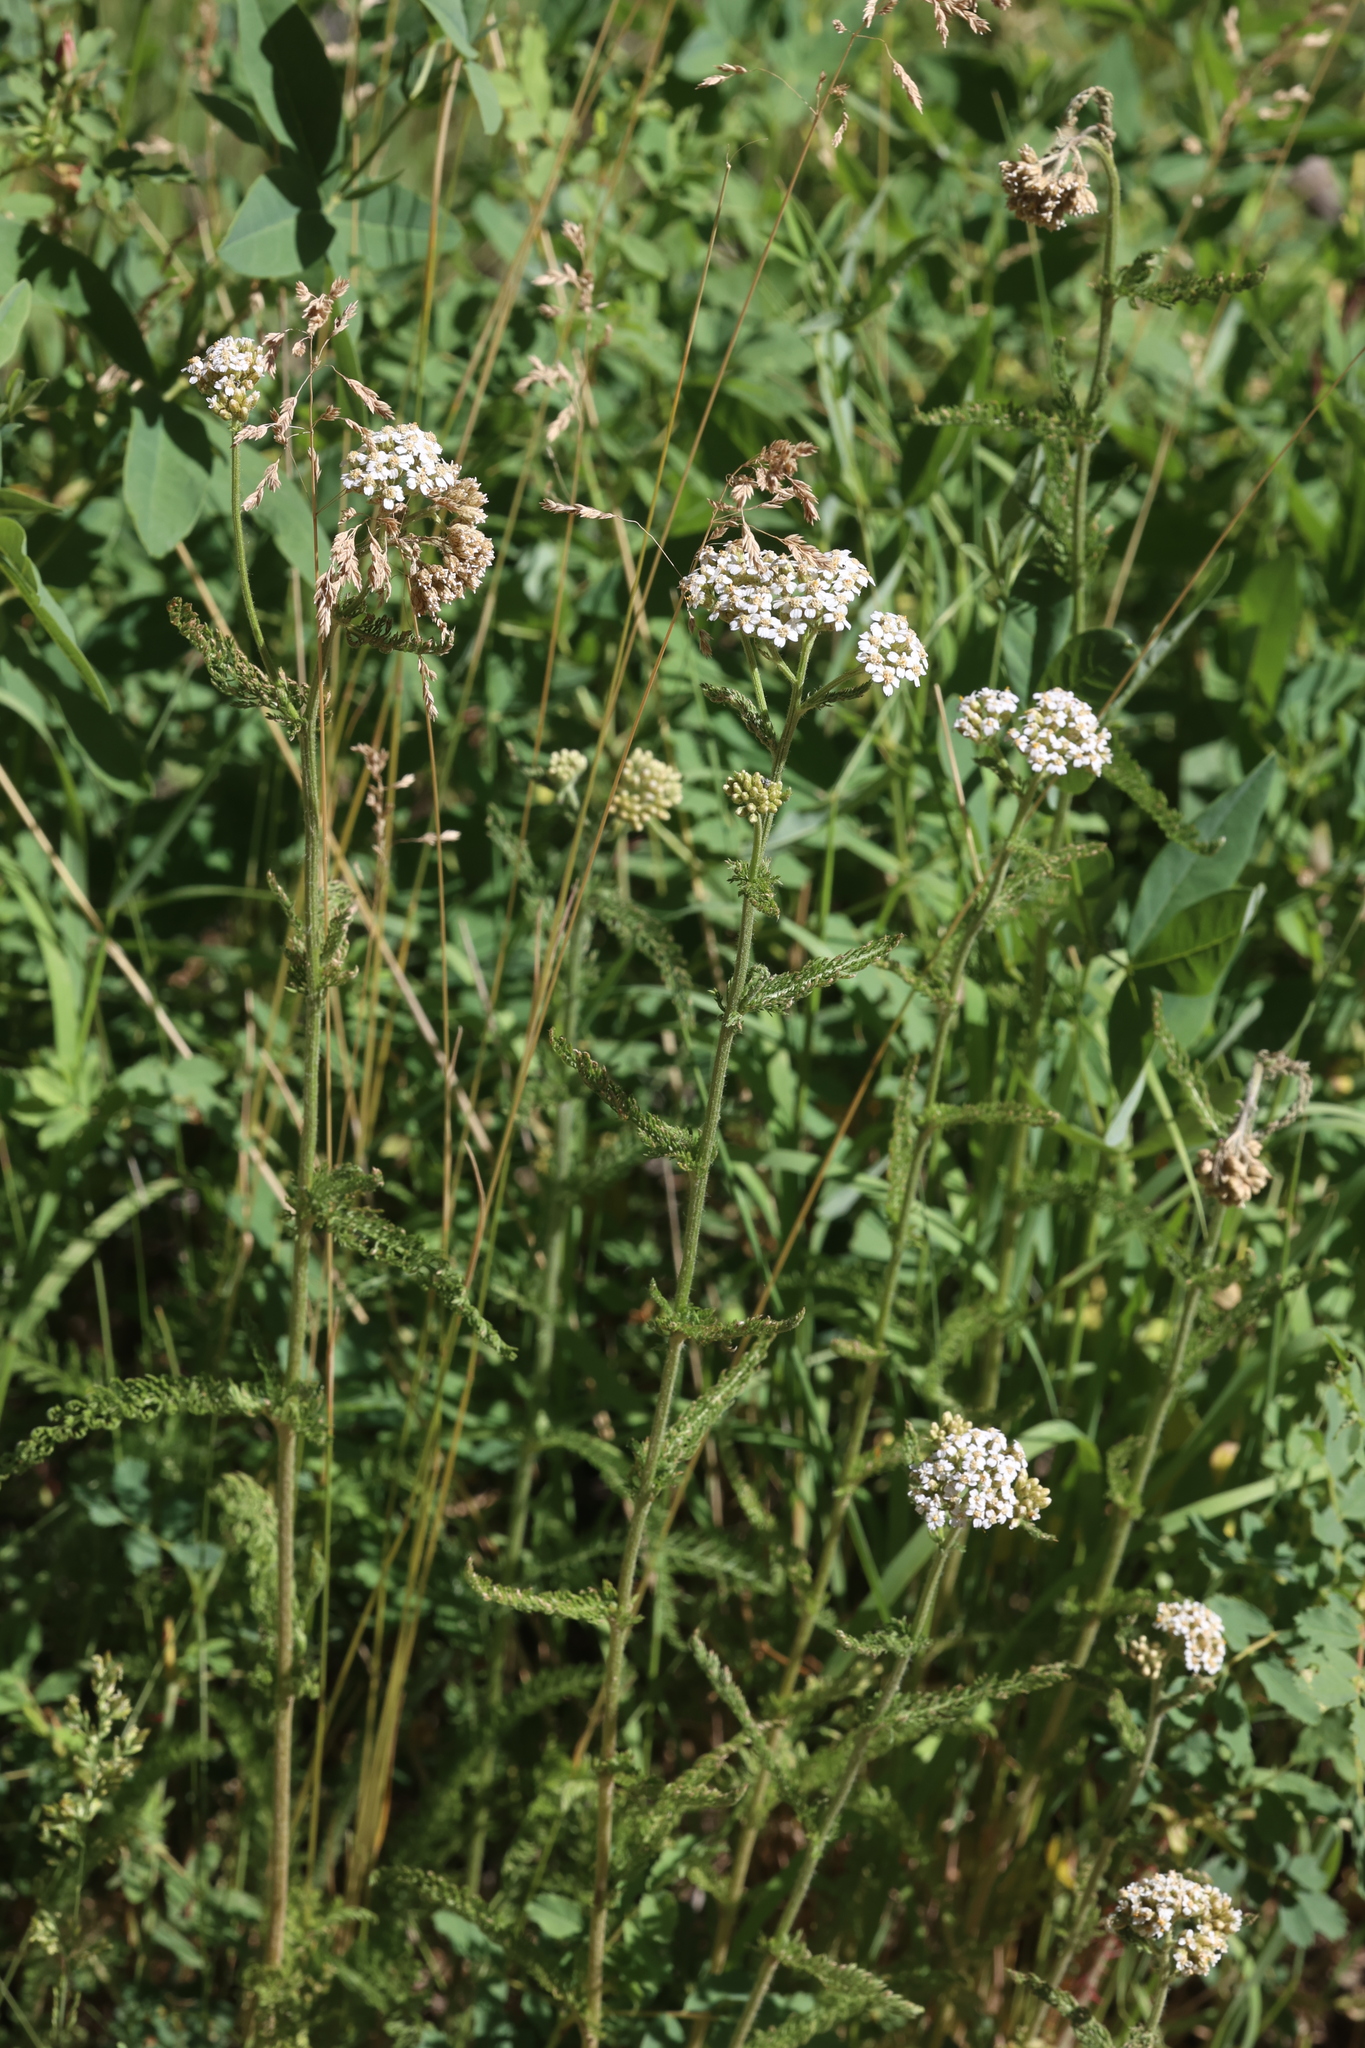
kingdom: Plantae
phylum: Tracheophyta
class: Magnoliopsida
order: Asterales
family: Asteraceae
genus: Achillea
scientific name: Achillea millefolium
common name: Yarrow
